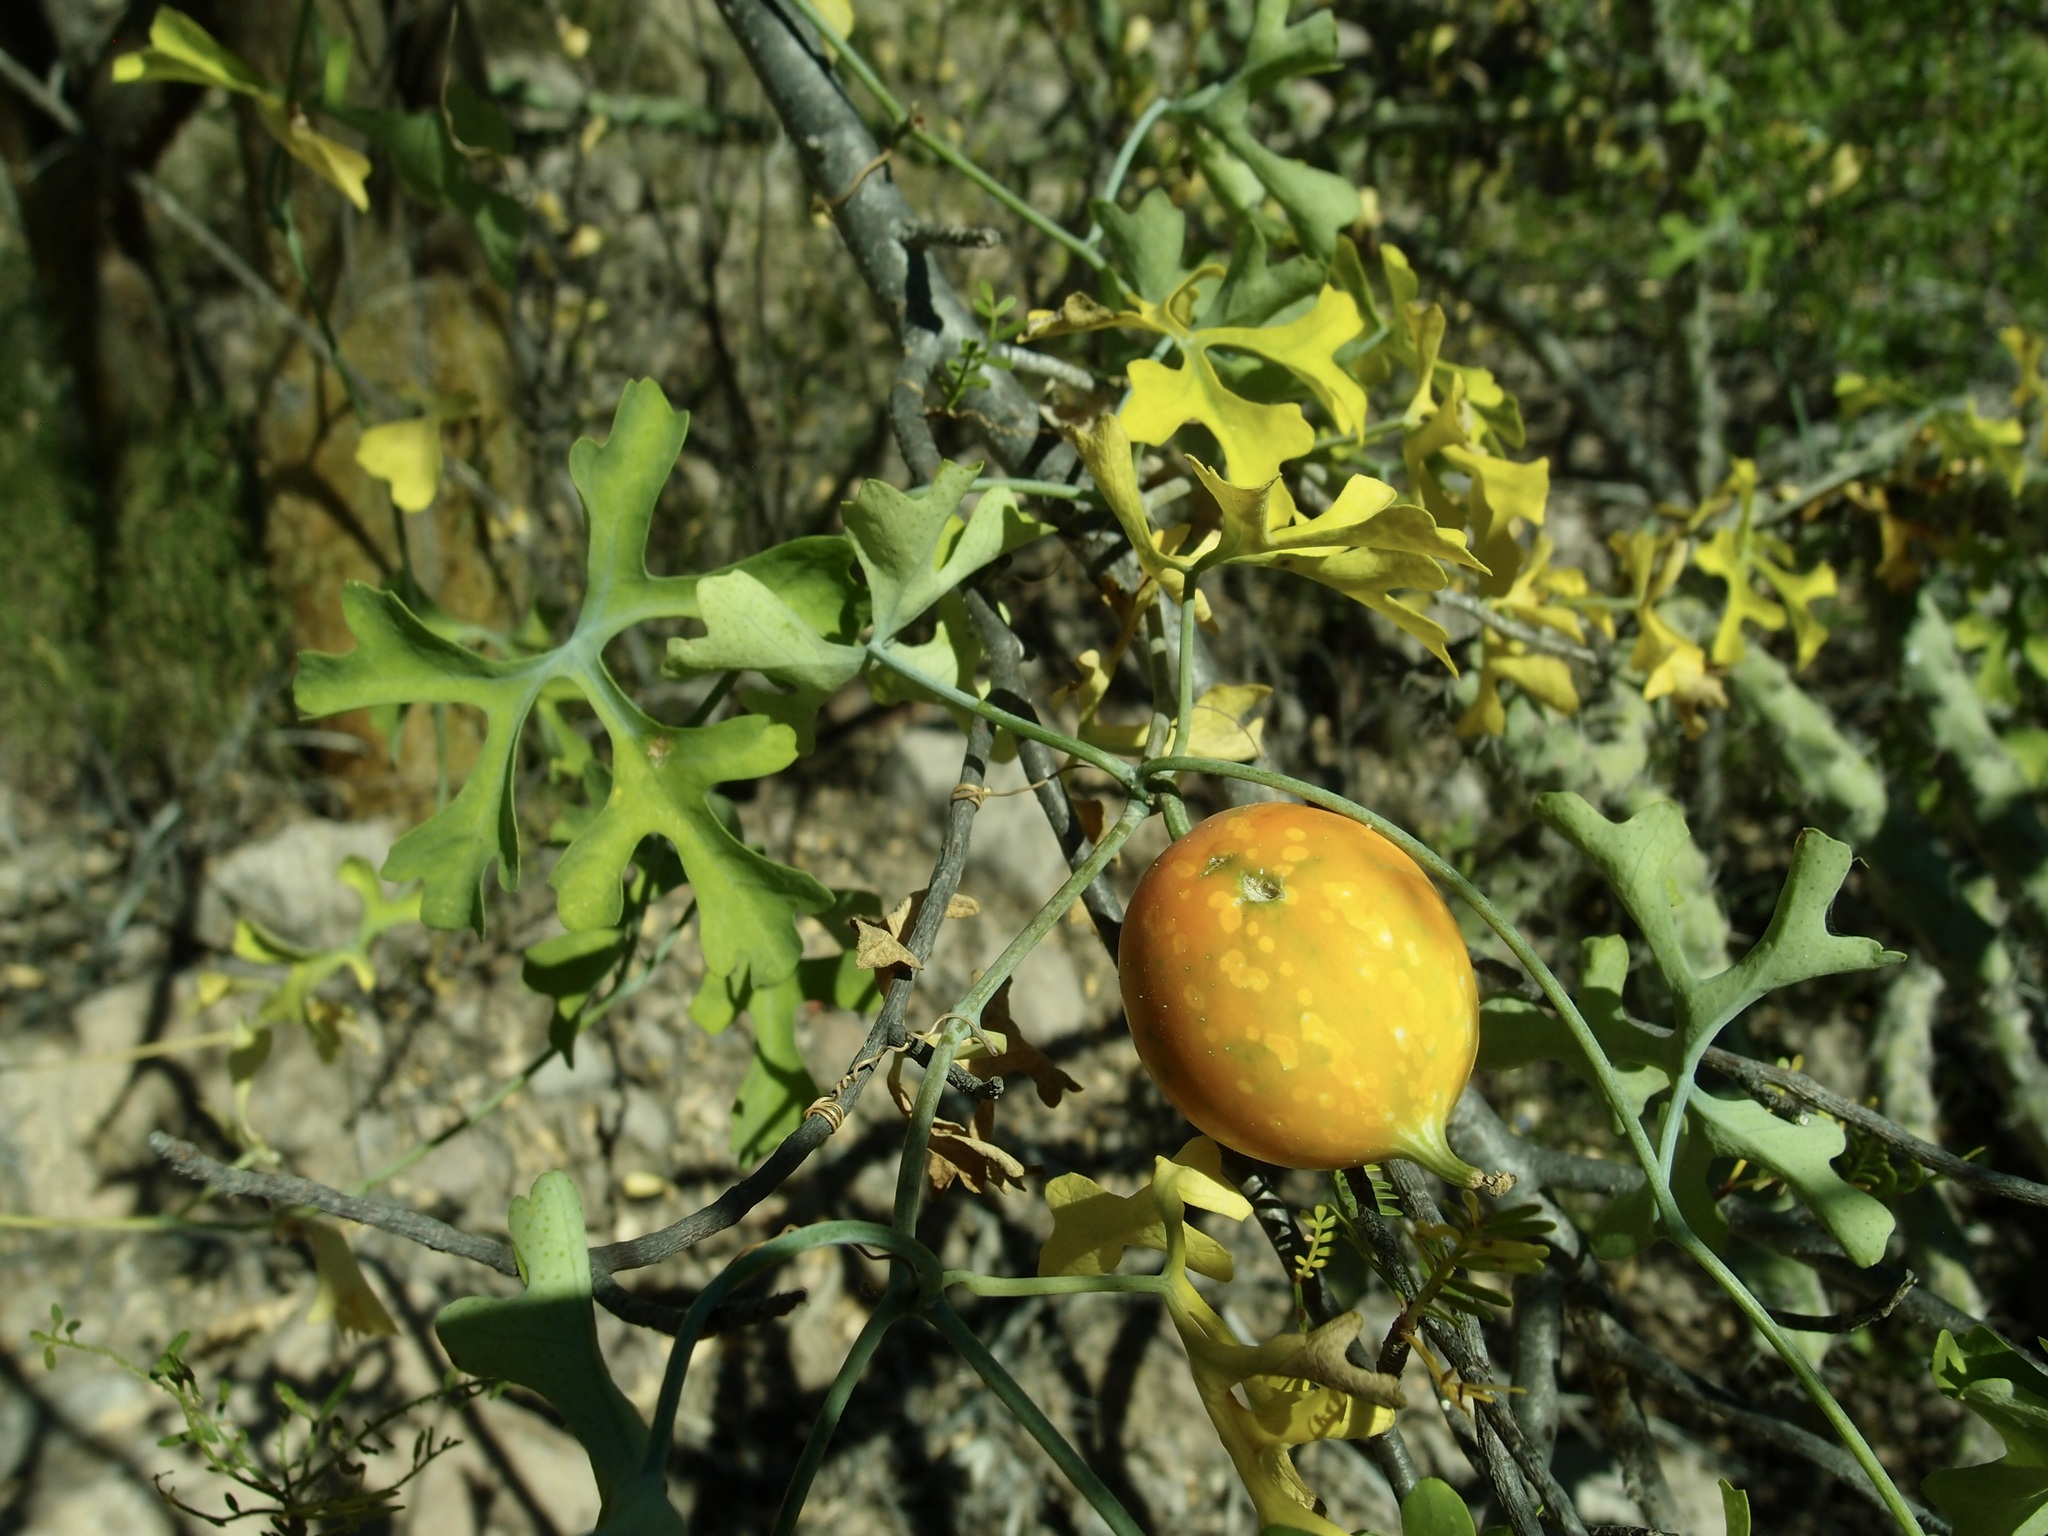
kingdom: Plantae
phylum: Tracheophyta
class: Magnoliopsida
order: Cucurbitales
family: Cucurbitaceae
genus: Ibervillea
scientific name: Ibervillea sonorae
